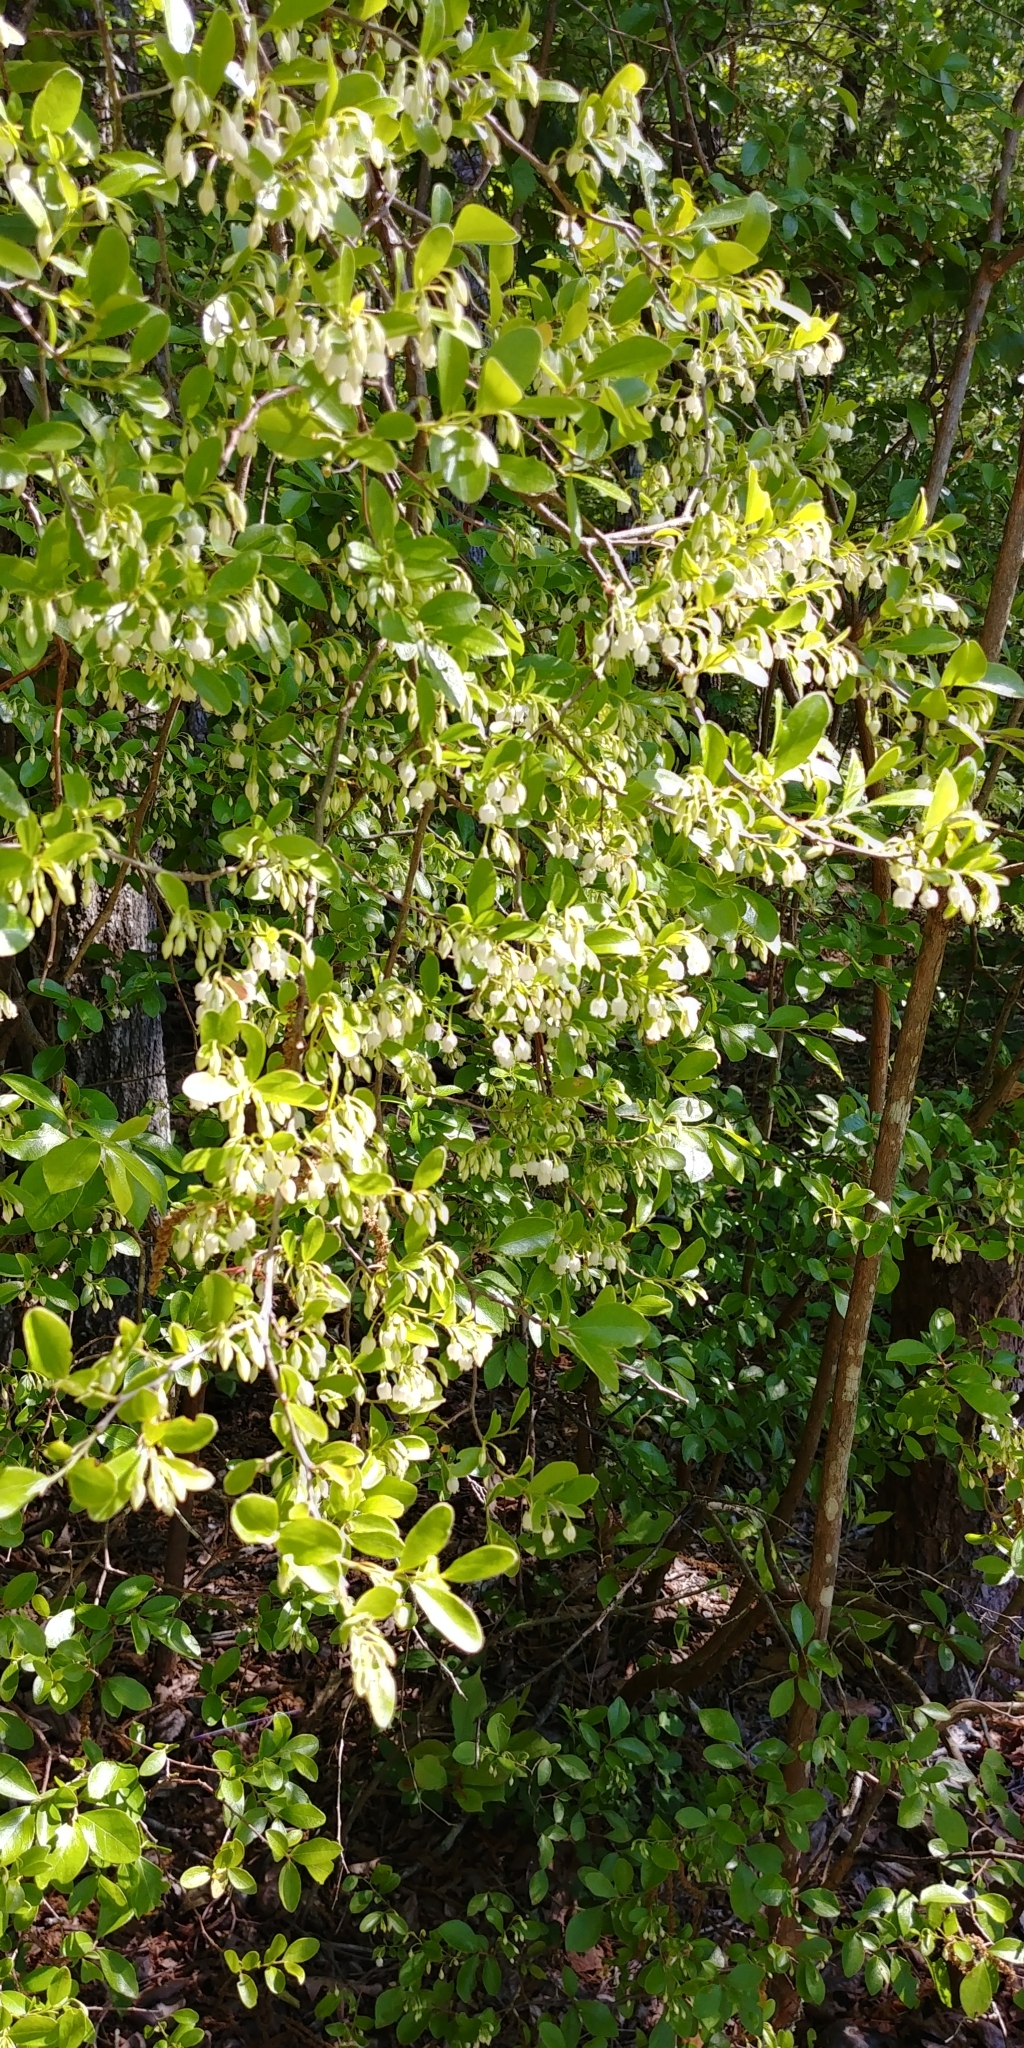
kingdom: Plantae
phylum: Tracheophyta
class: Magnoliopsida
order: Ericales
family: Ericaceae
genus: Vaccinium
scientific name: Vaccinium arboreum
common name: Farkleberry
